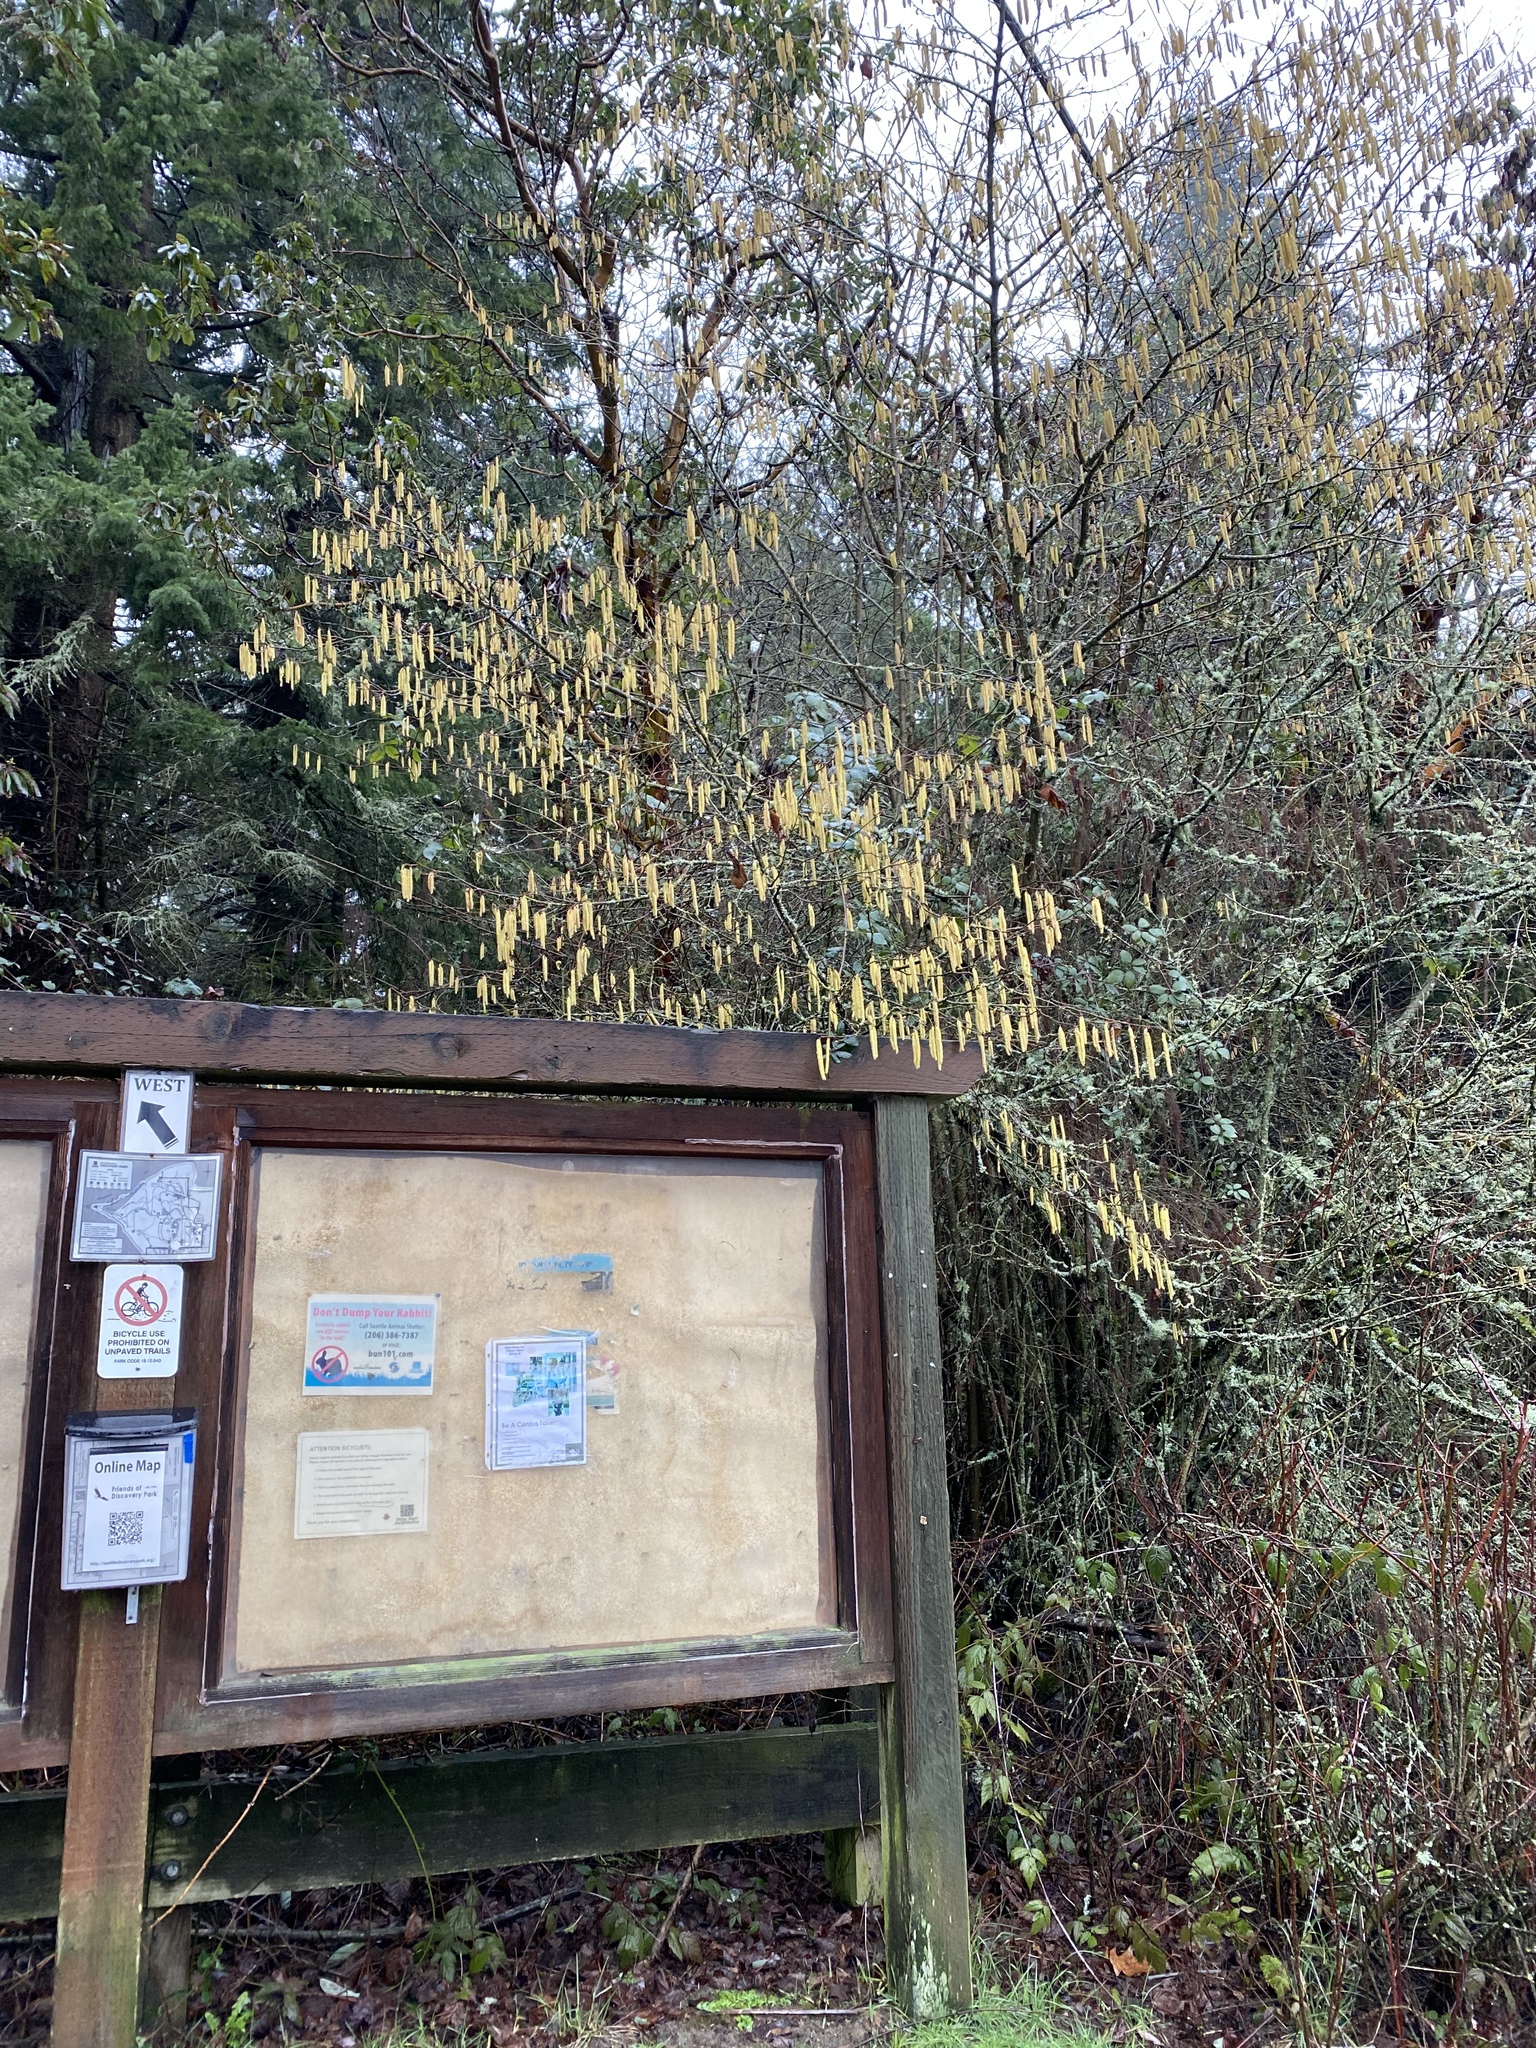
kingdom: Plantae
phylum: Tracheophyta
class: Magnoliopsida
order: Fagales
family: Betulaceae
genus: Corylus
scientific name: Corylus cornuta
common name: Beaked hazel
